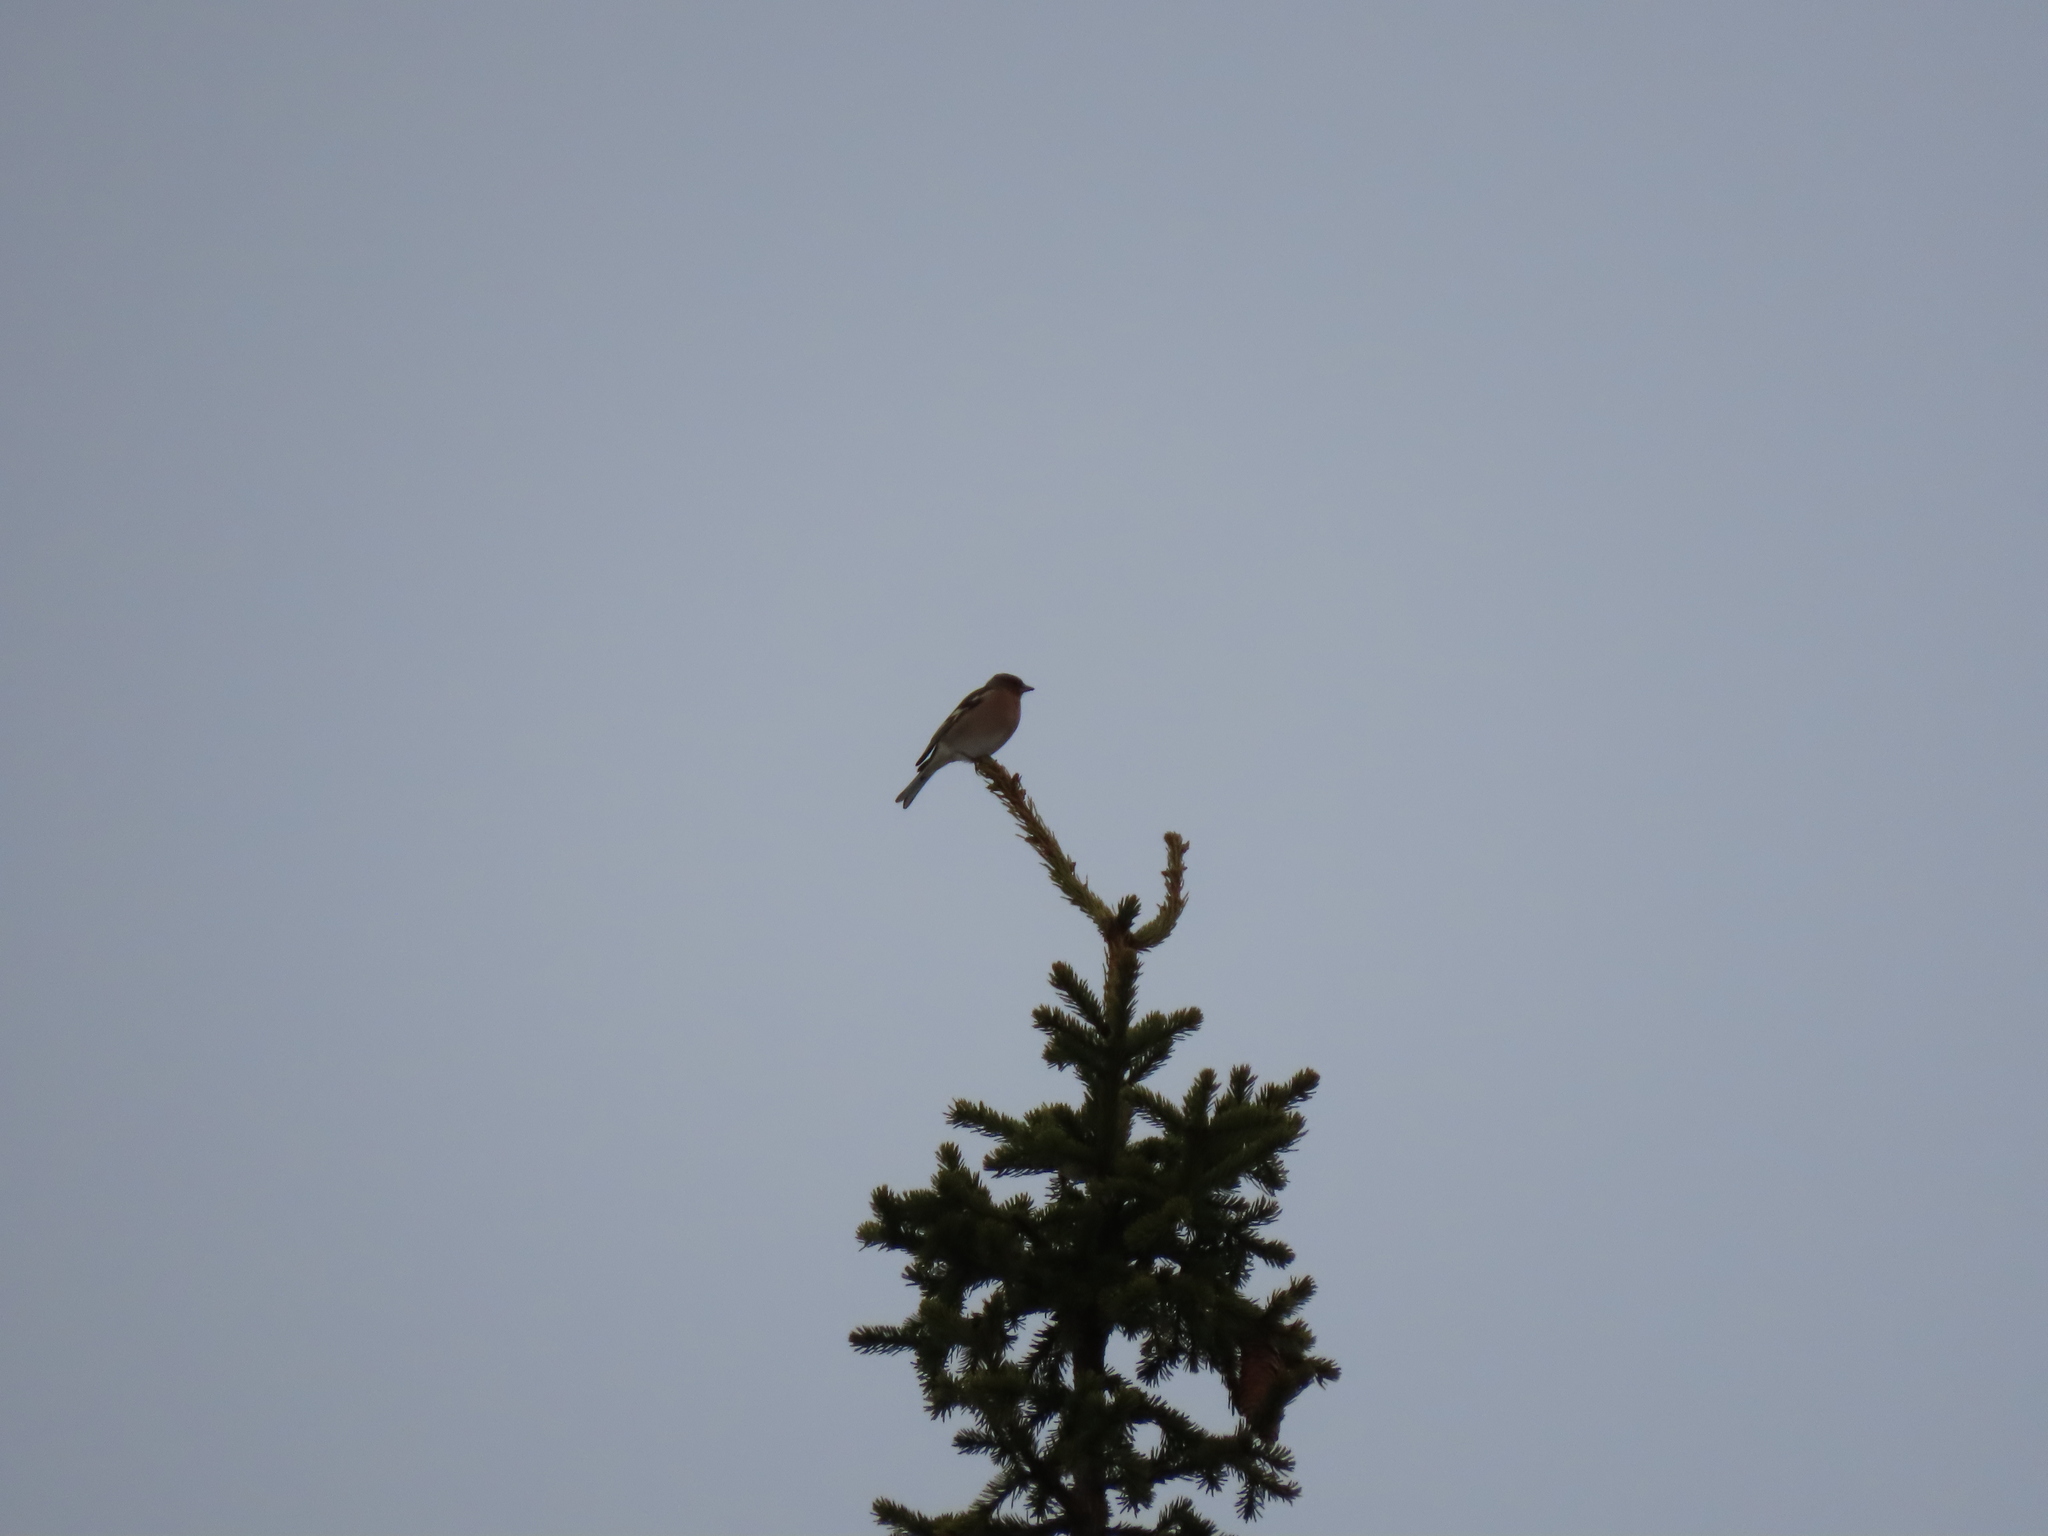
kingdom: Animalia
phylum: Chordata
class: Aves
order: Passeriformes
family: Fringillidae
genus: Fringilla
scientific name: Fringilla coelebs
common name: Common chaffinch
